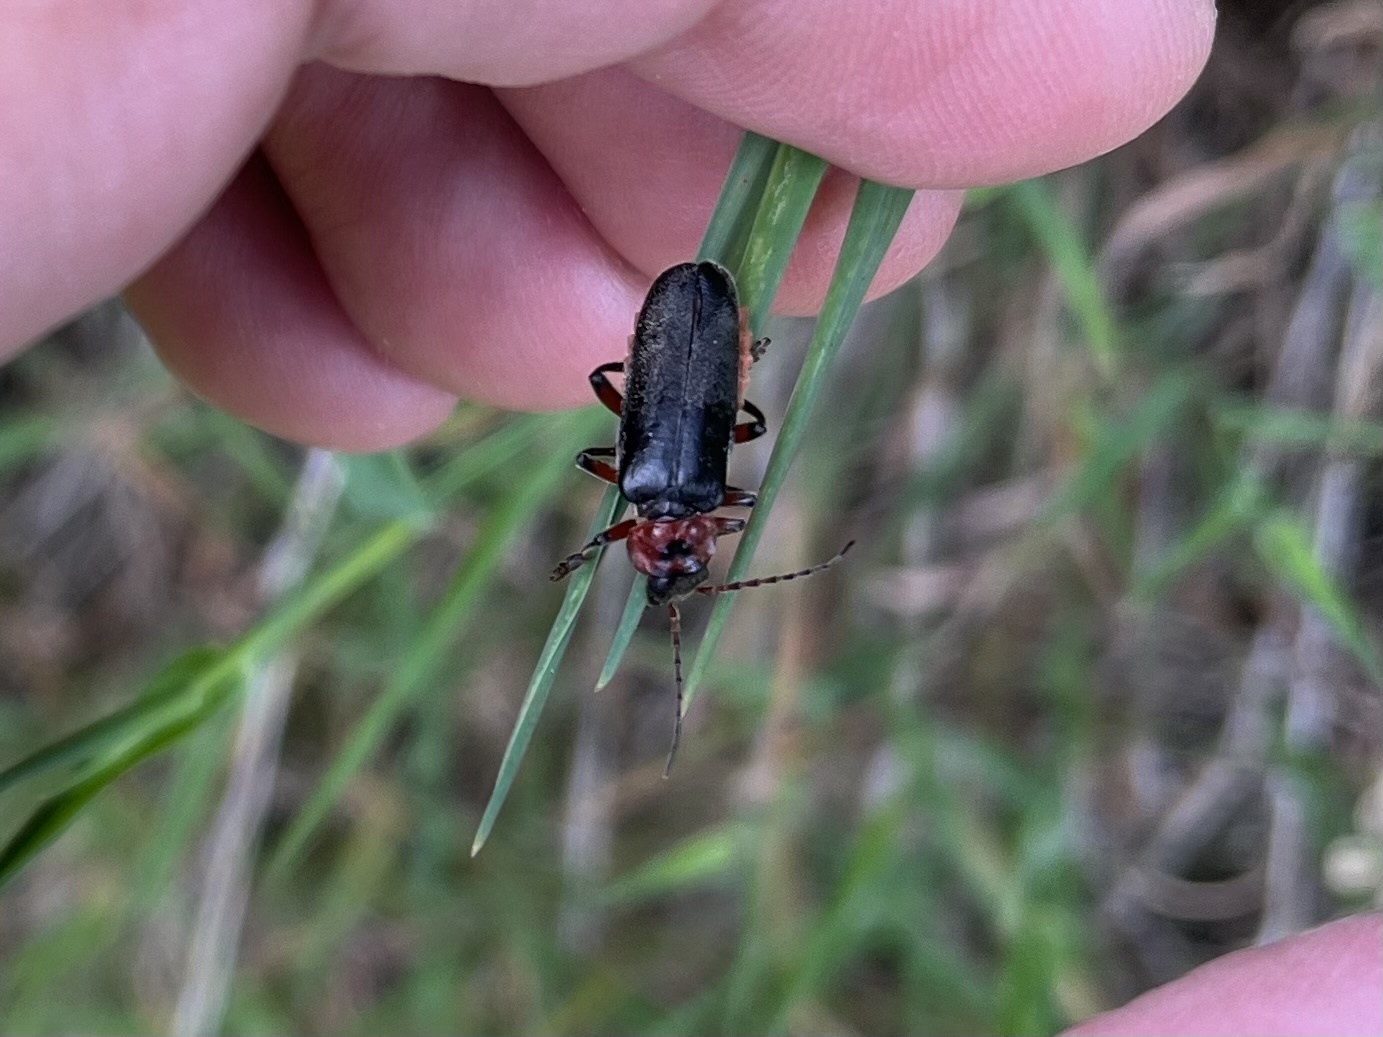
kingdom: Animalia
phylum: Arthropoda
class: Insecta
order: Coleoptera
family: Cantharidae
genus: Cantharis
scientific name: Cantharis rustica
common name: Soldier beetle
